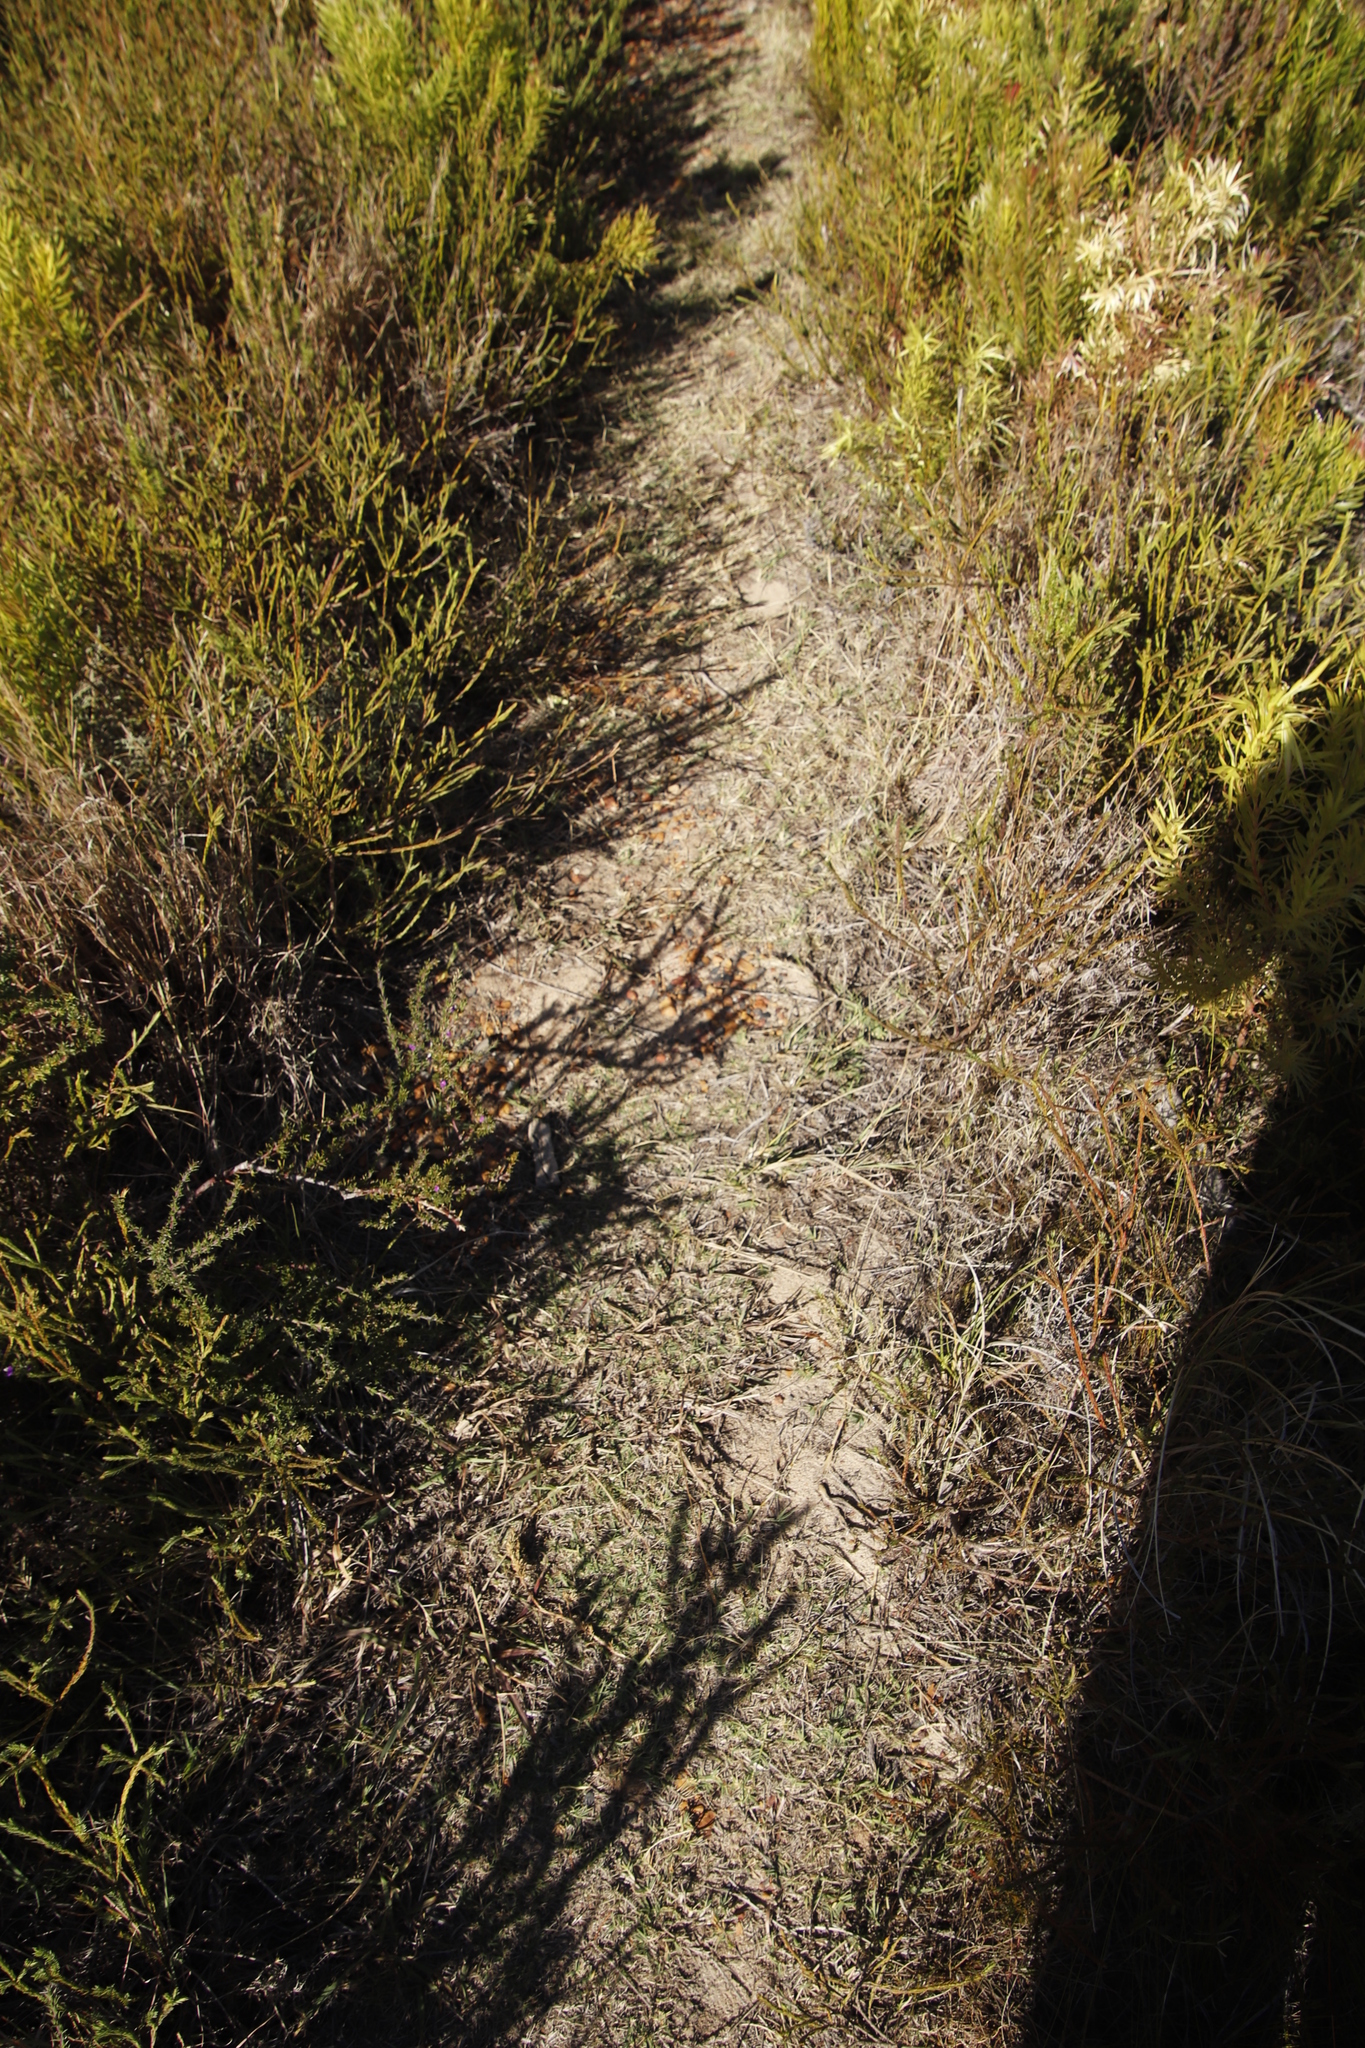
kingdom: Plantae
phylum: Tracheophyta
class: Liliopsida
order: Poales
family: Poaceae
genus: Sporobolus
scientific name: Sporobolus africanus
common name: African dropseed
